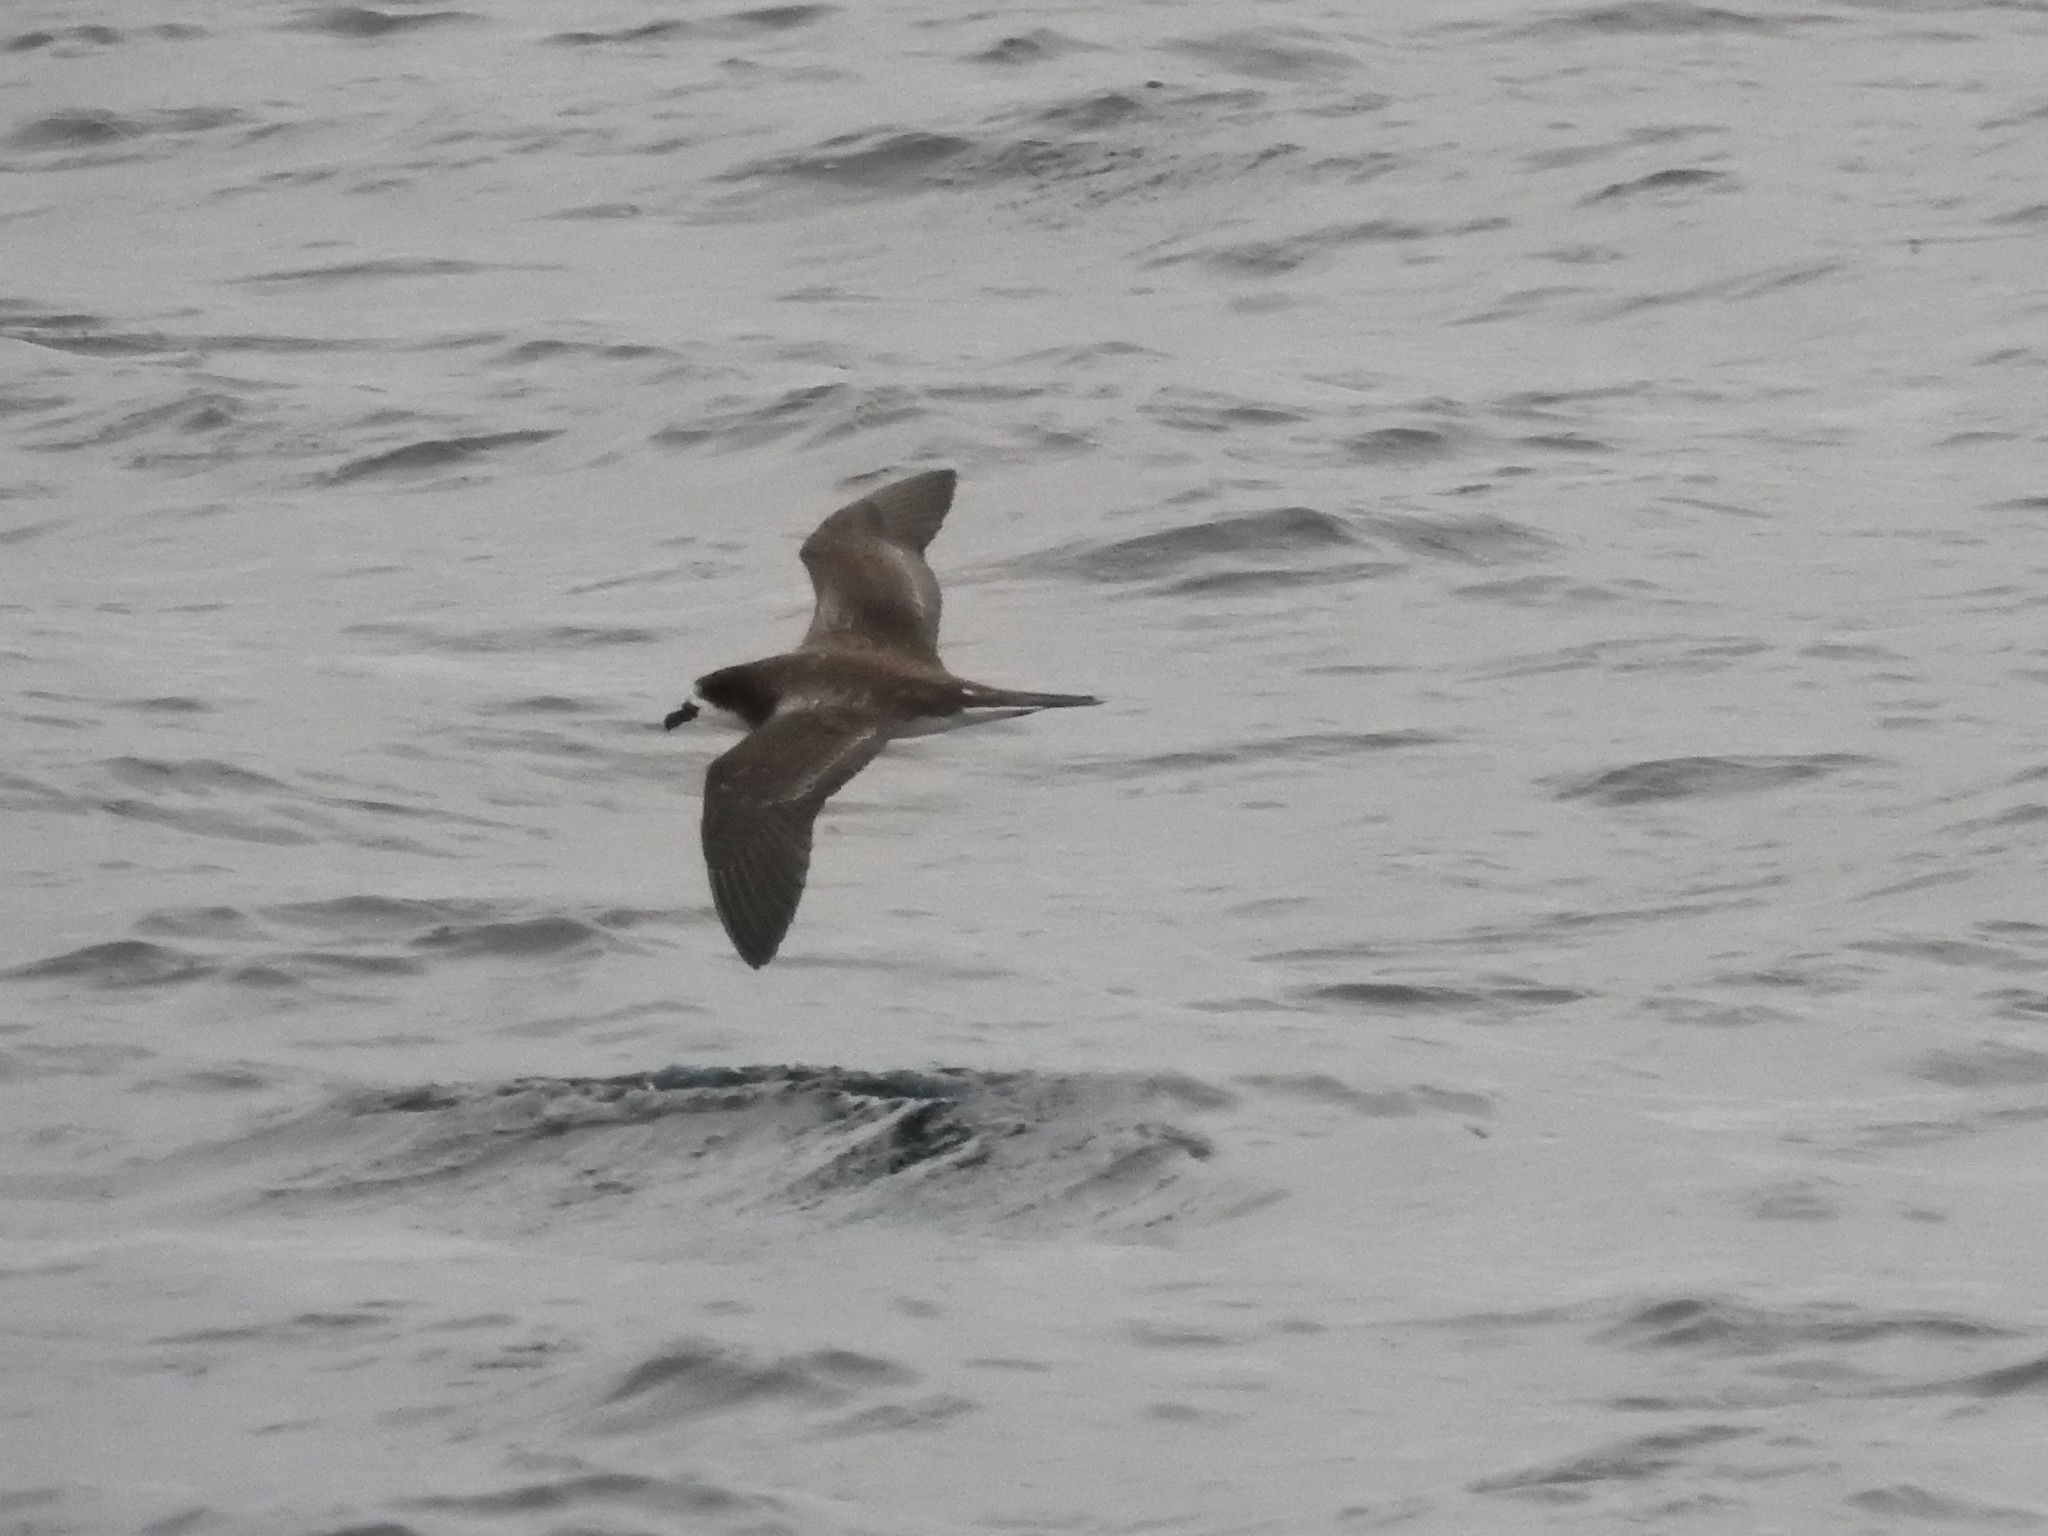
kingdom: Animalia
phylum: Chordata
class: Aves
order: Procellariiformes
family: Procellariidae
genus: Pterodroma
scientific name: Pterodroma phaeopygia
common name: Galapagos petrel
